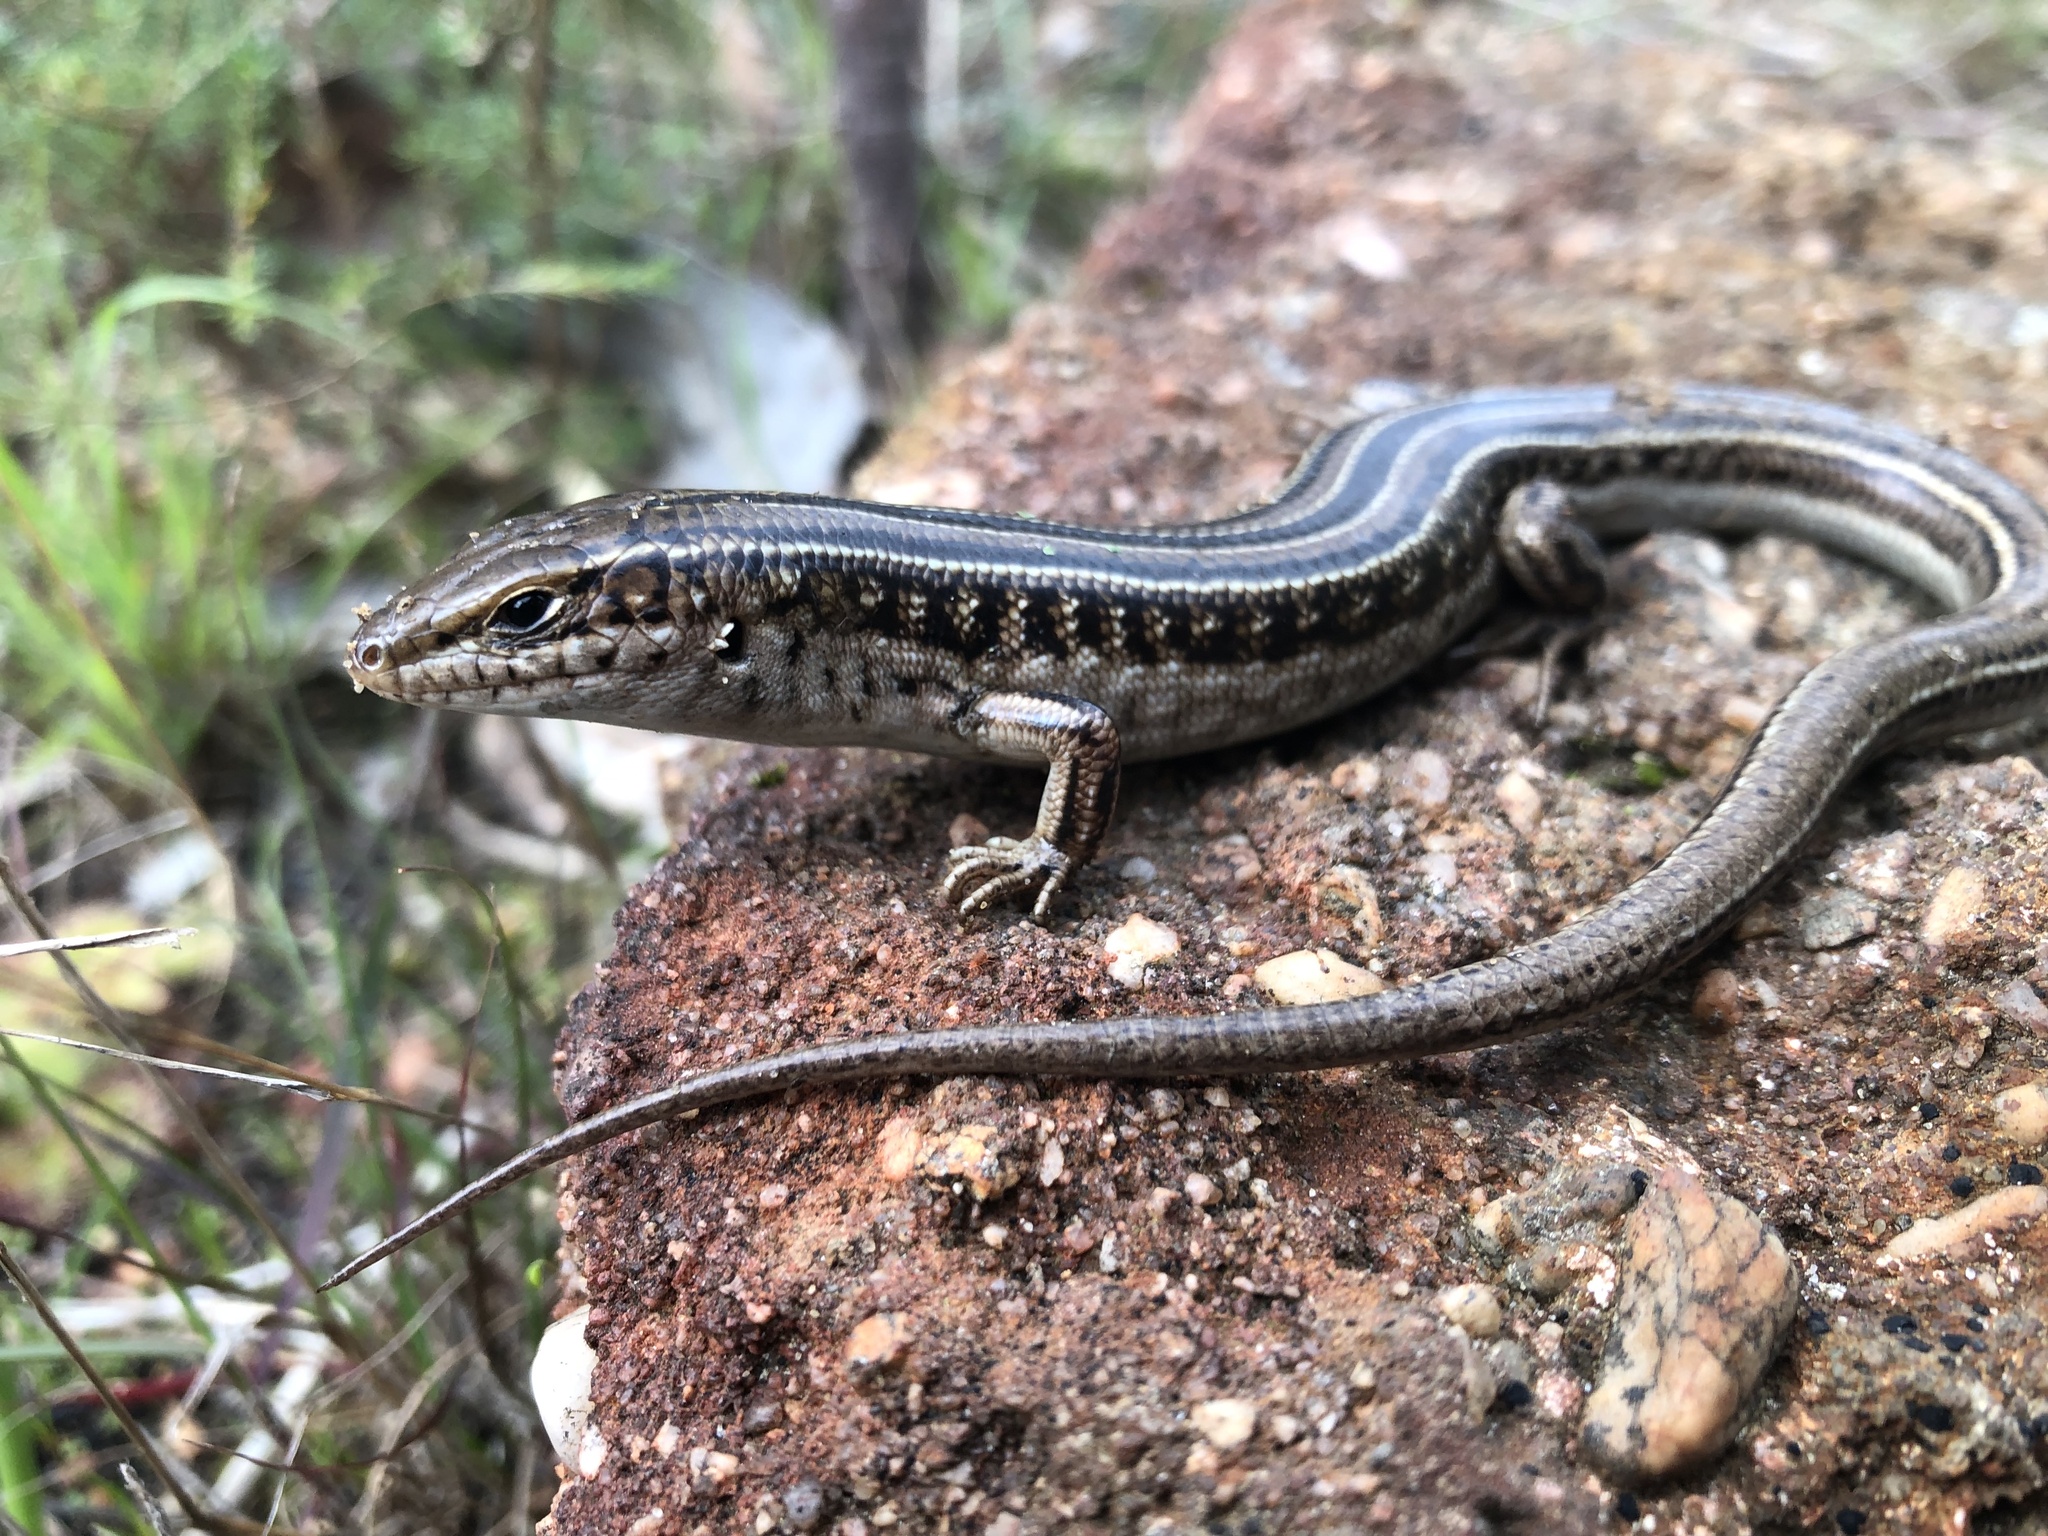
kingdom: Animalia
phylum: Chordata
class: Squamata
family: Scincidae
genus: Ctenotus
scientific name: Ctenotus robustus
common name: Robust ctenotus
